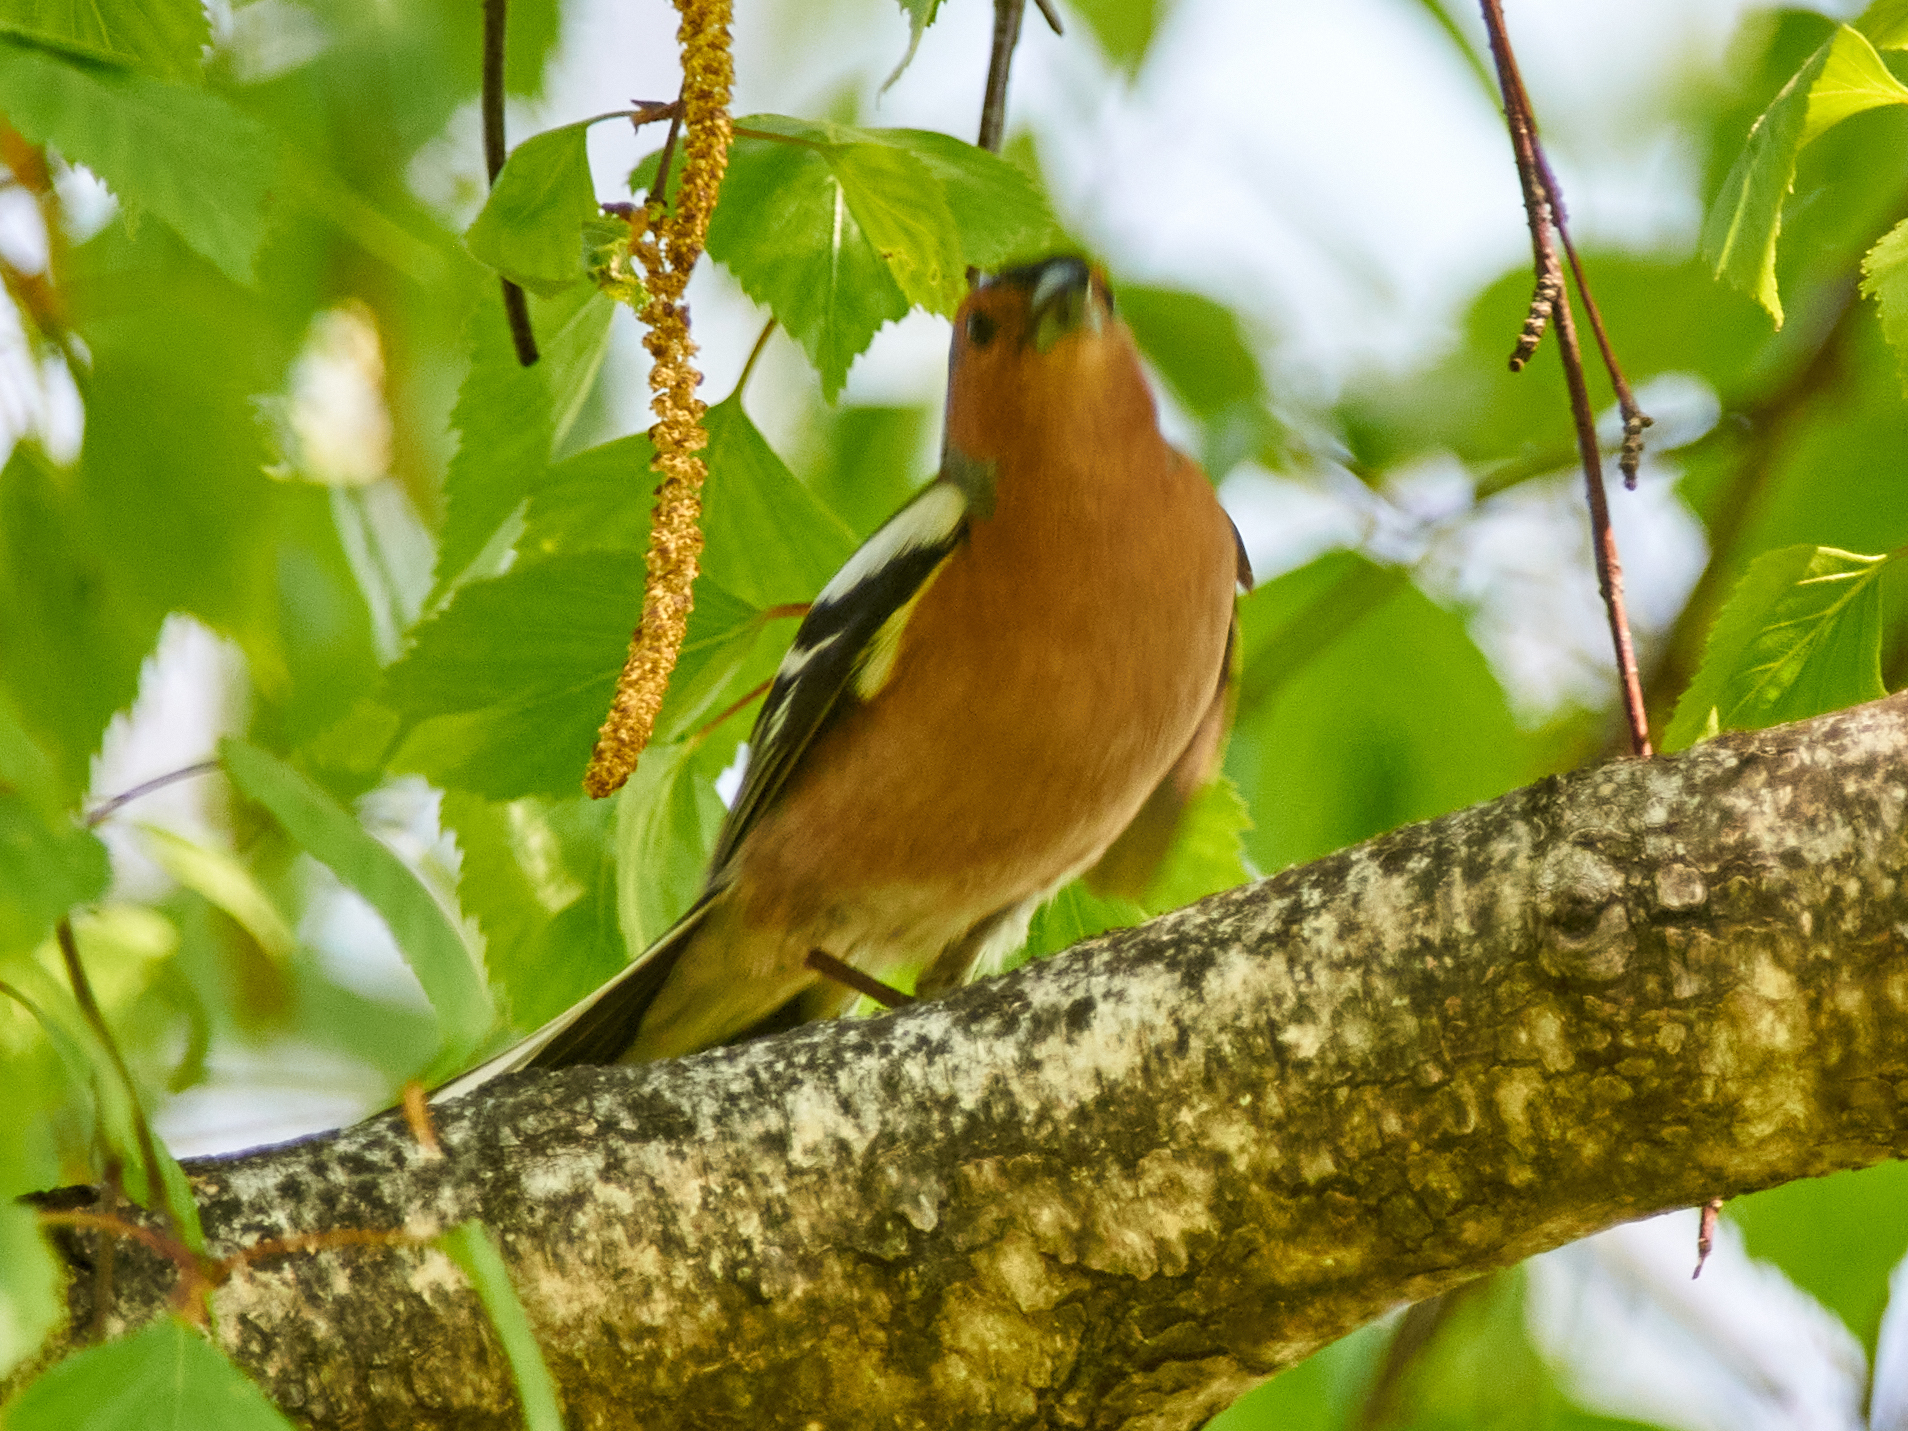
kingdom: Animalia
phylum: Chordata
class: Aves
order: Passeriformes
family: Fringillidae
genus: Fringilla
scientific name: Fringilla coelebs
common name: Common chaffinch
